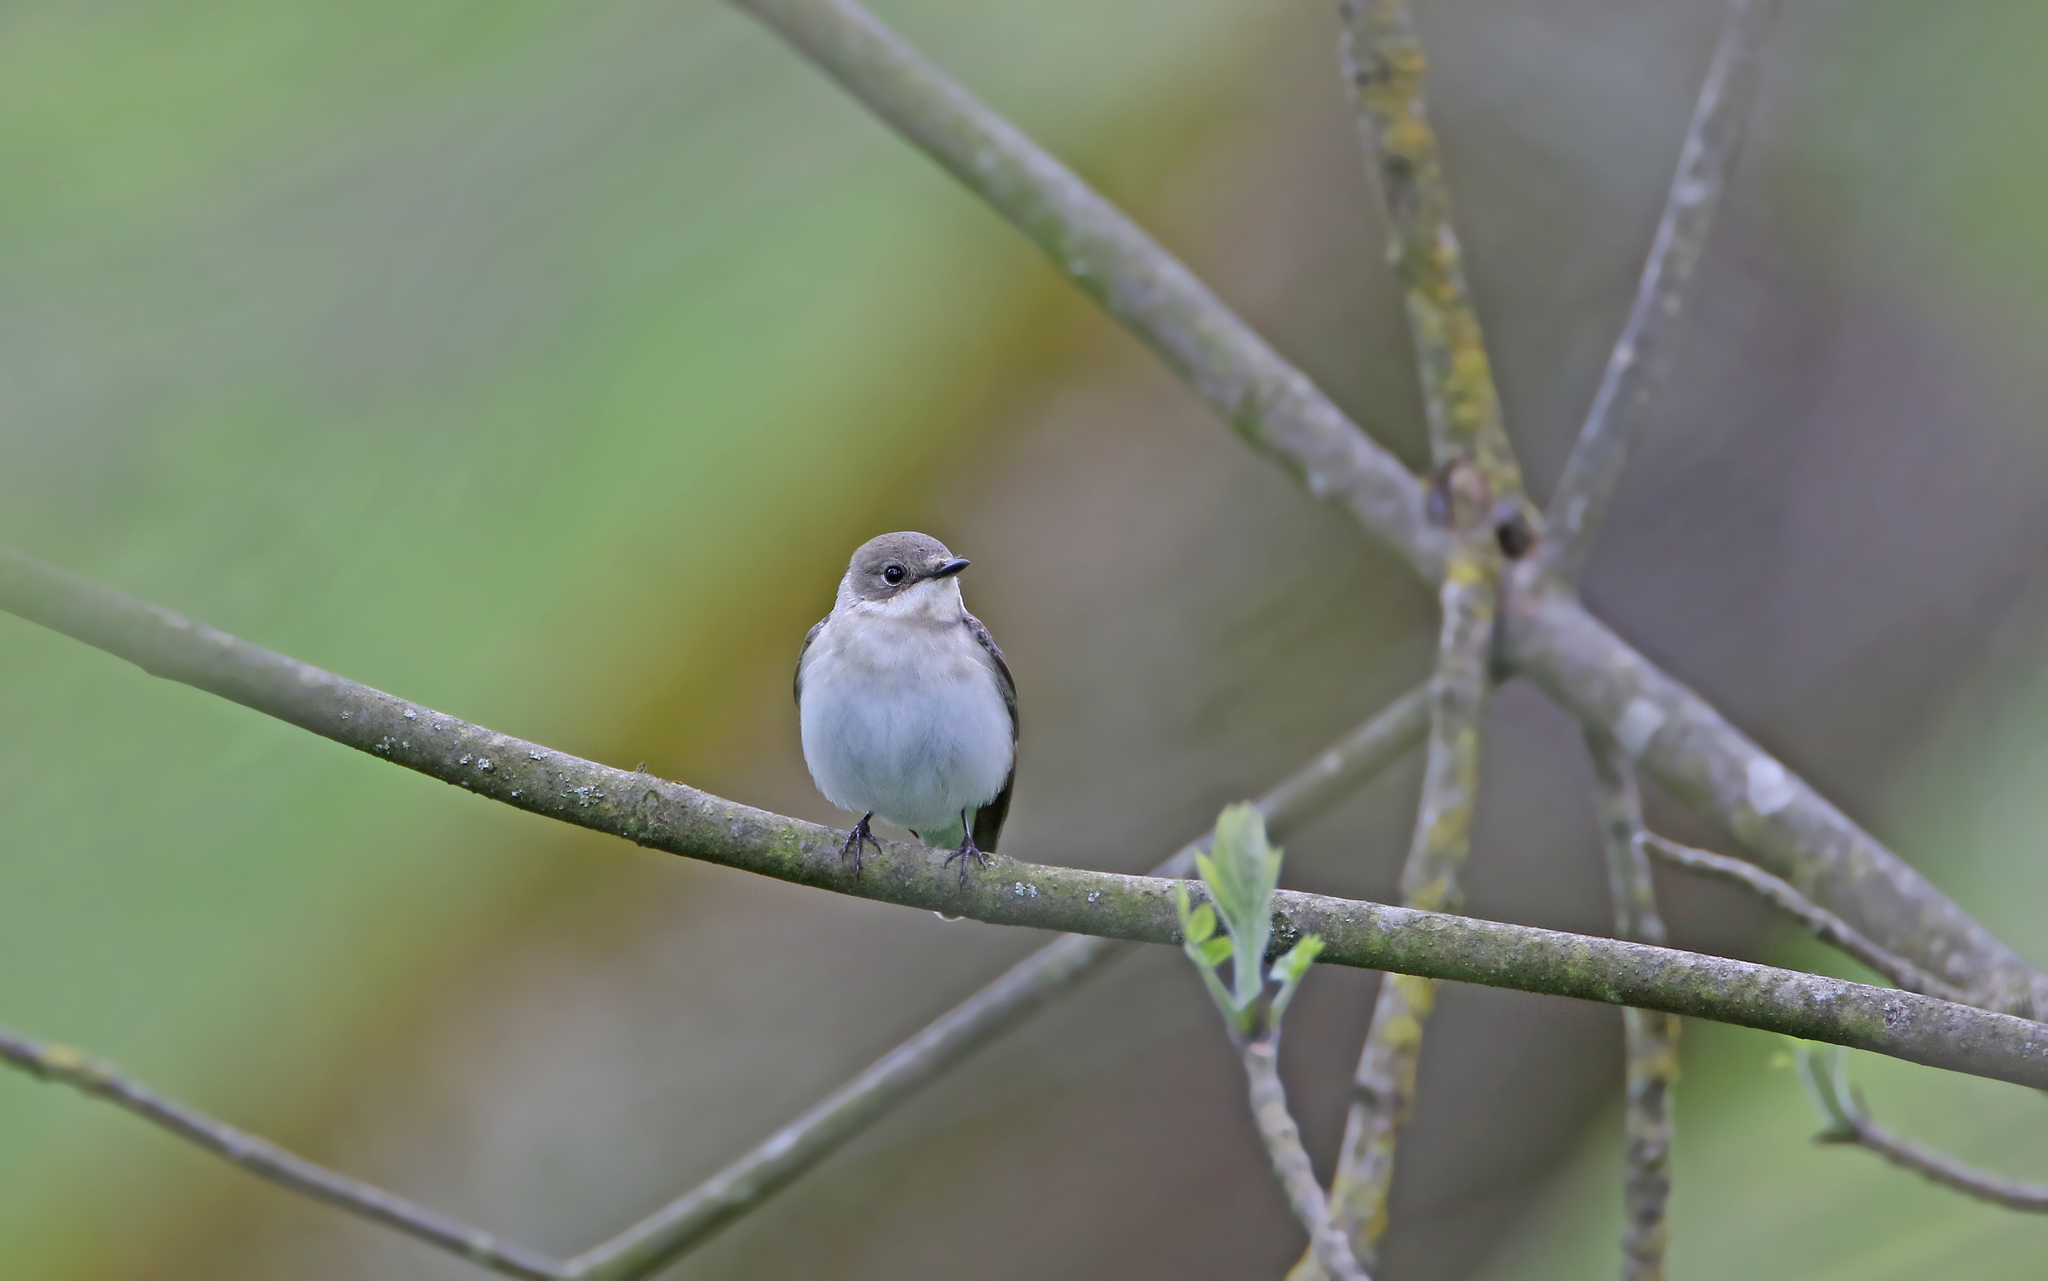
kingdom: Animalia
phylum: Chordata
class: Aves
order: Passeriformes
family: Muscicapidae
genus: Ficedula
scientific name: Ficedula albicollis
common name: Collared flycatcher
